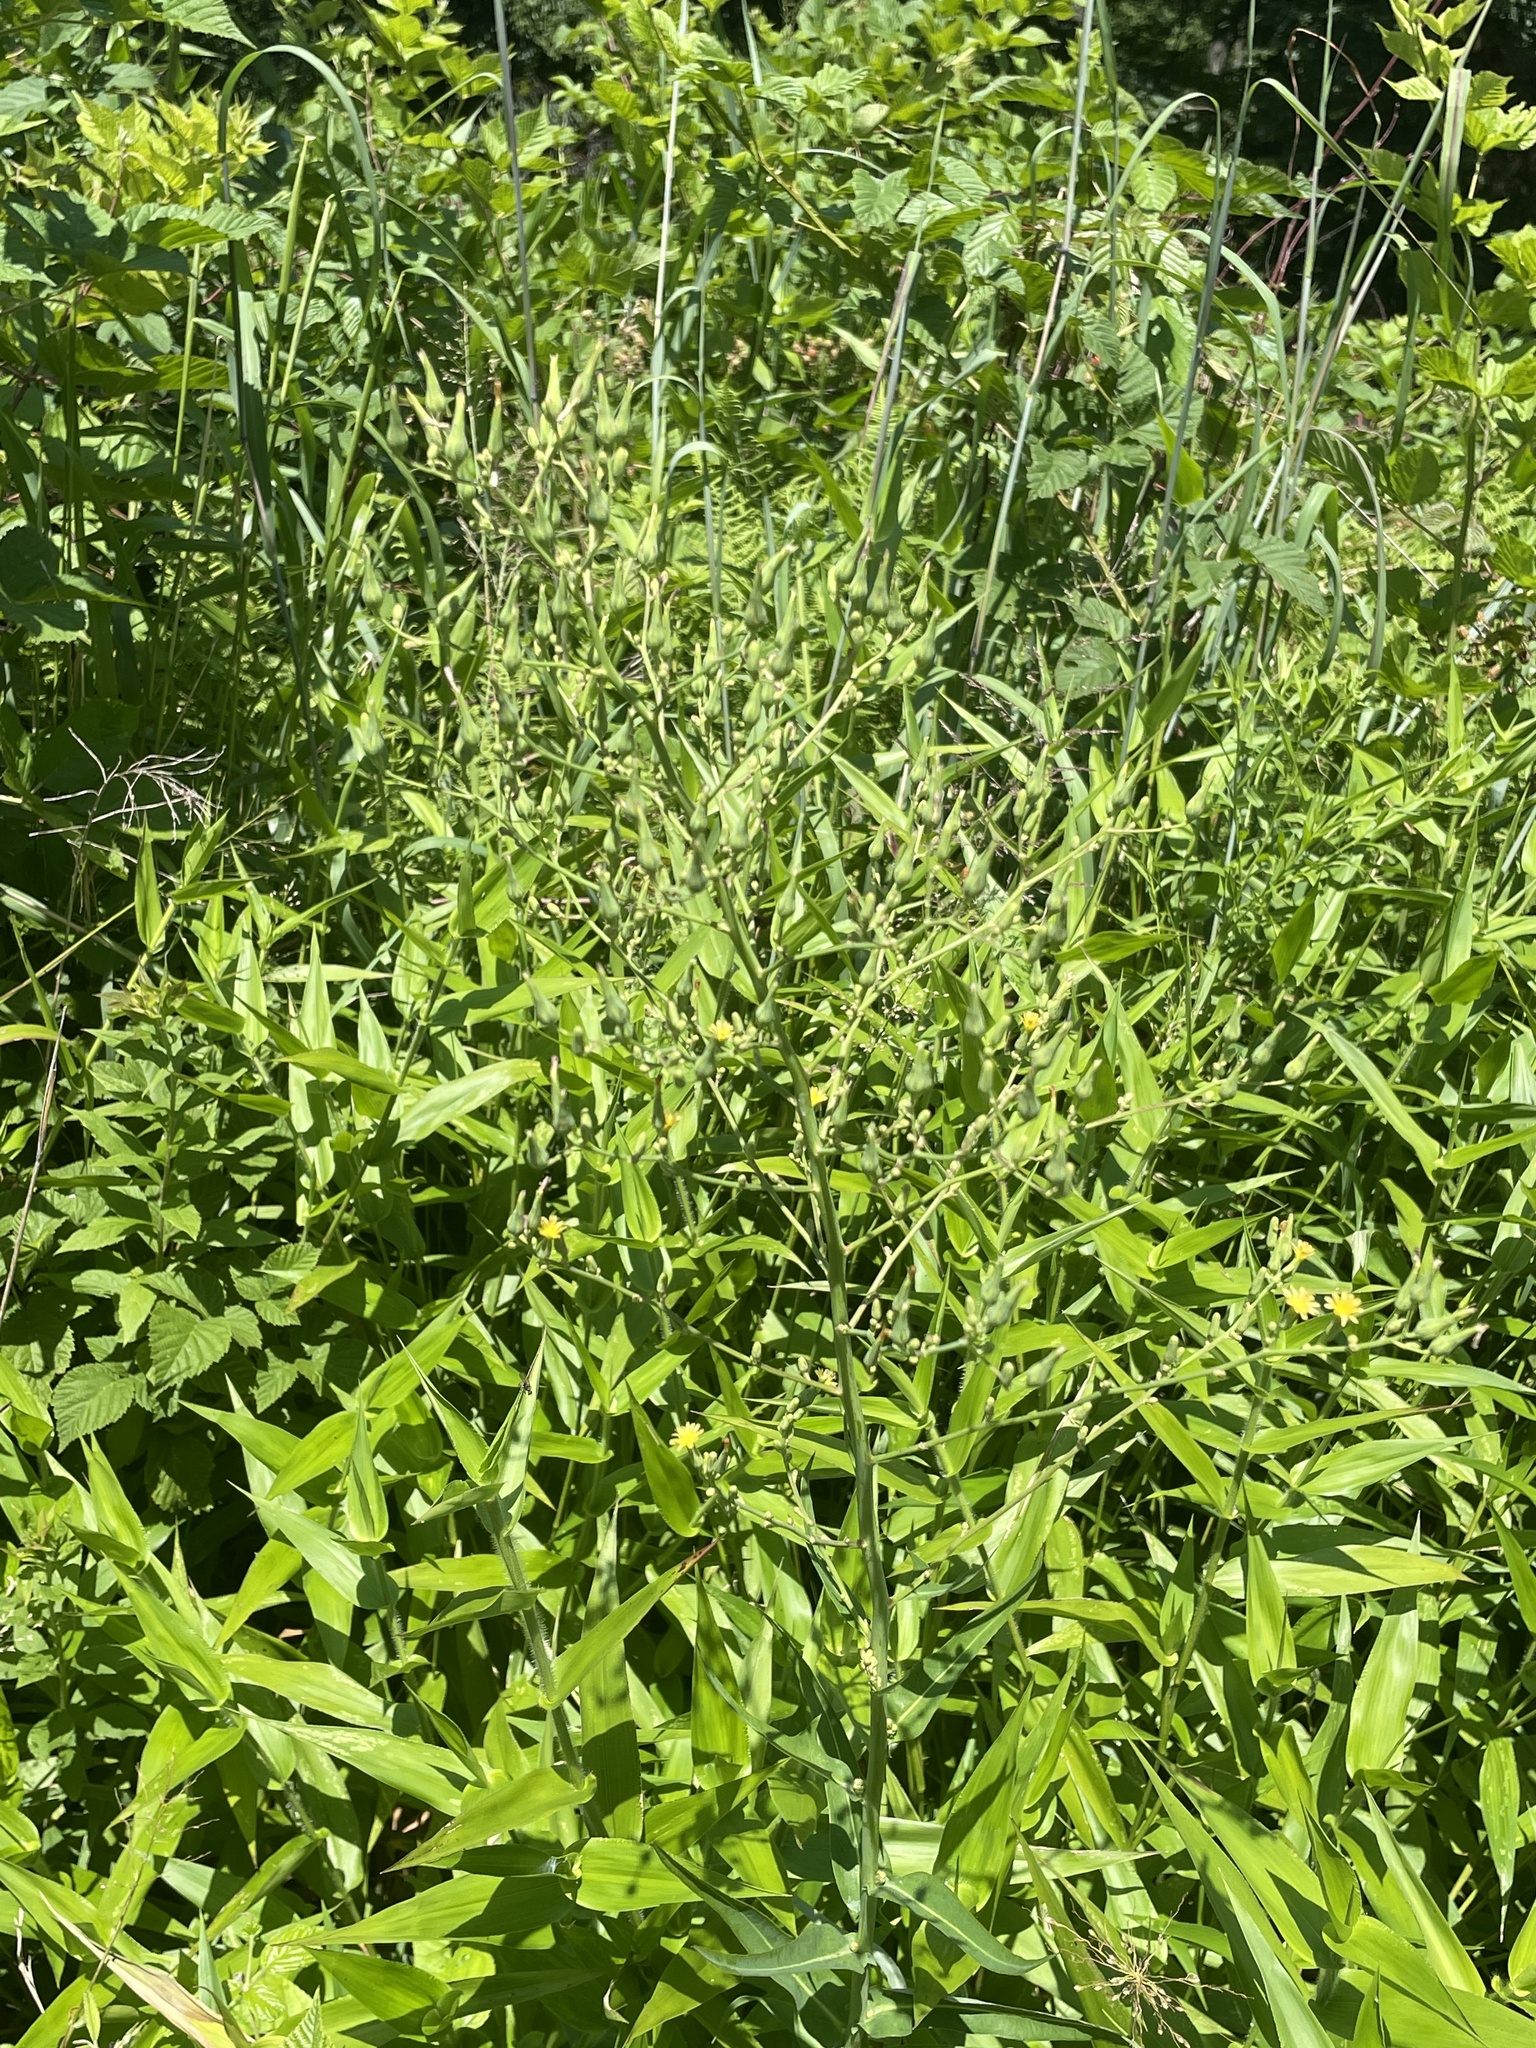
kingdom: Plantae
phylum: Tracheophyta
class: Magnoliopsida
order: Asterales
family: Asteraceae
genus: Lactuca
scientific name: Lactuca canadensis
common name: Canada lettuce
